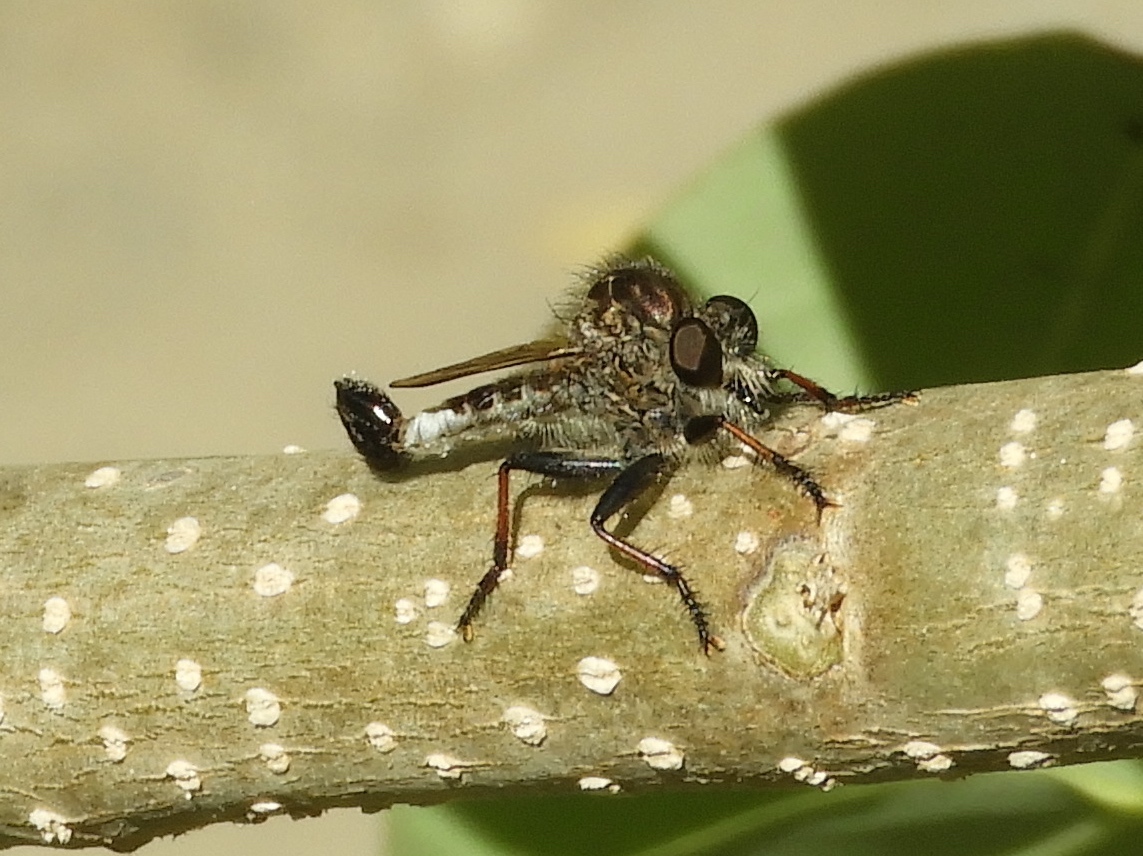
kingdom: Animalia
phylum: Arthropoda
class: Insecta
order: Diptera
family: Asilidae
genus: Efferia
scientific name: Efferia
